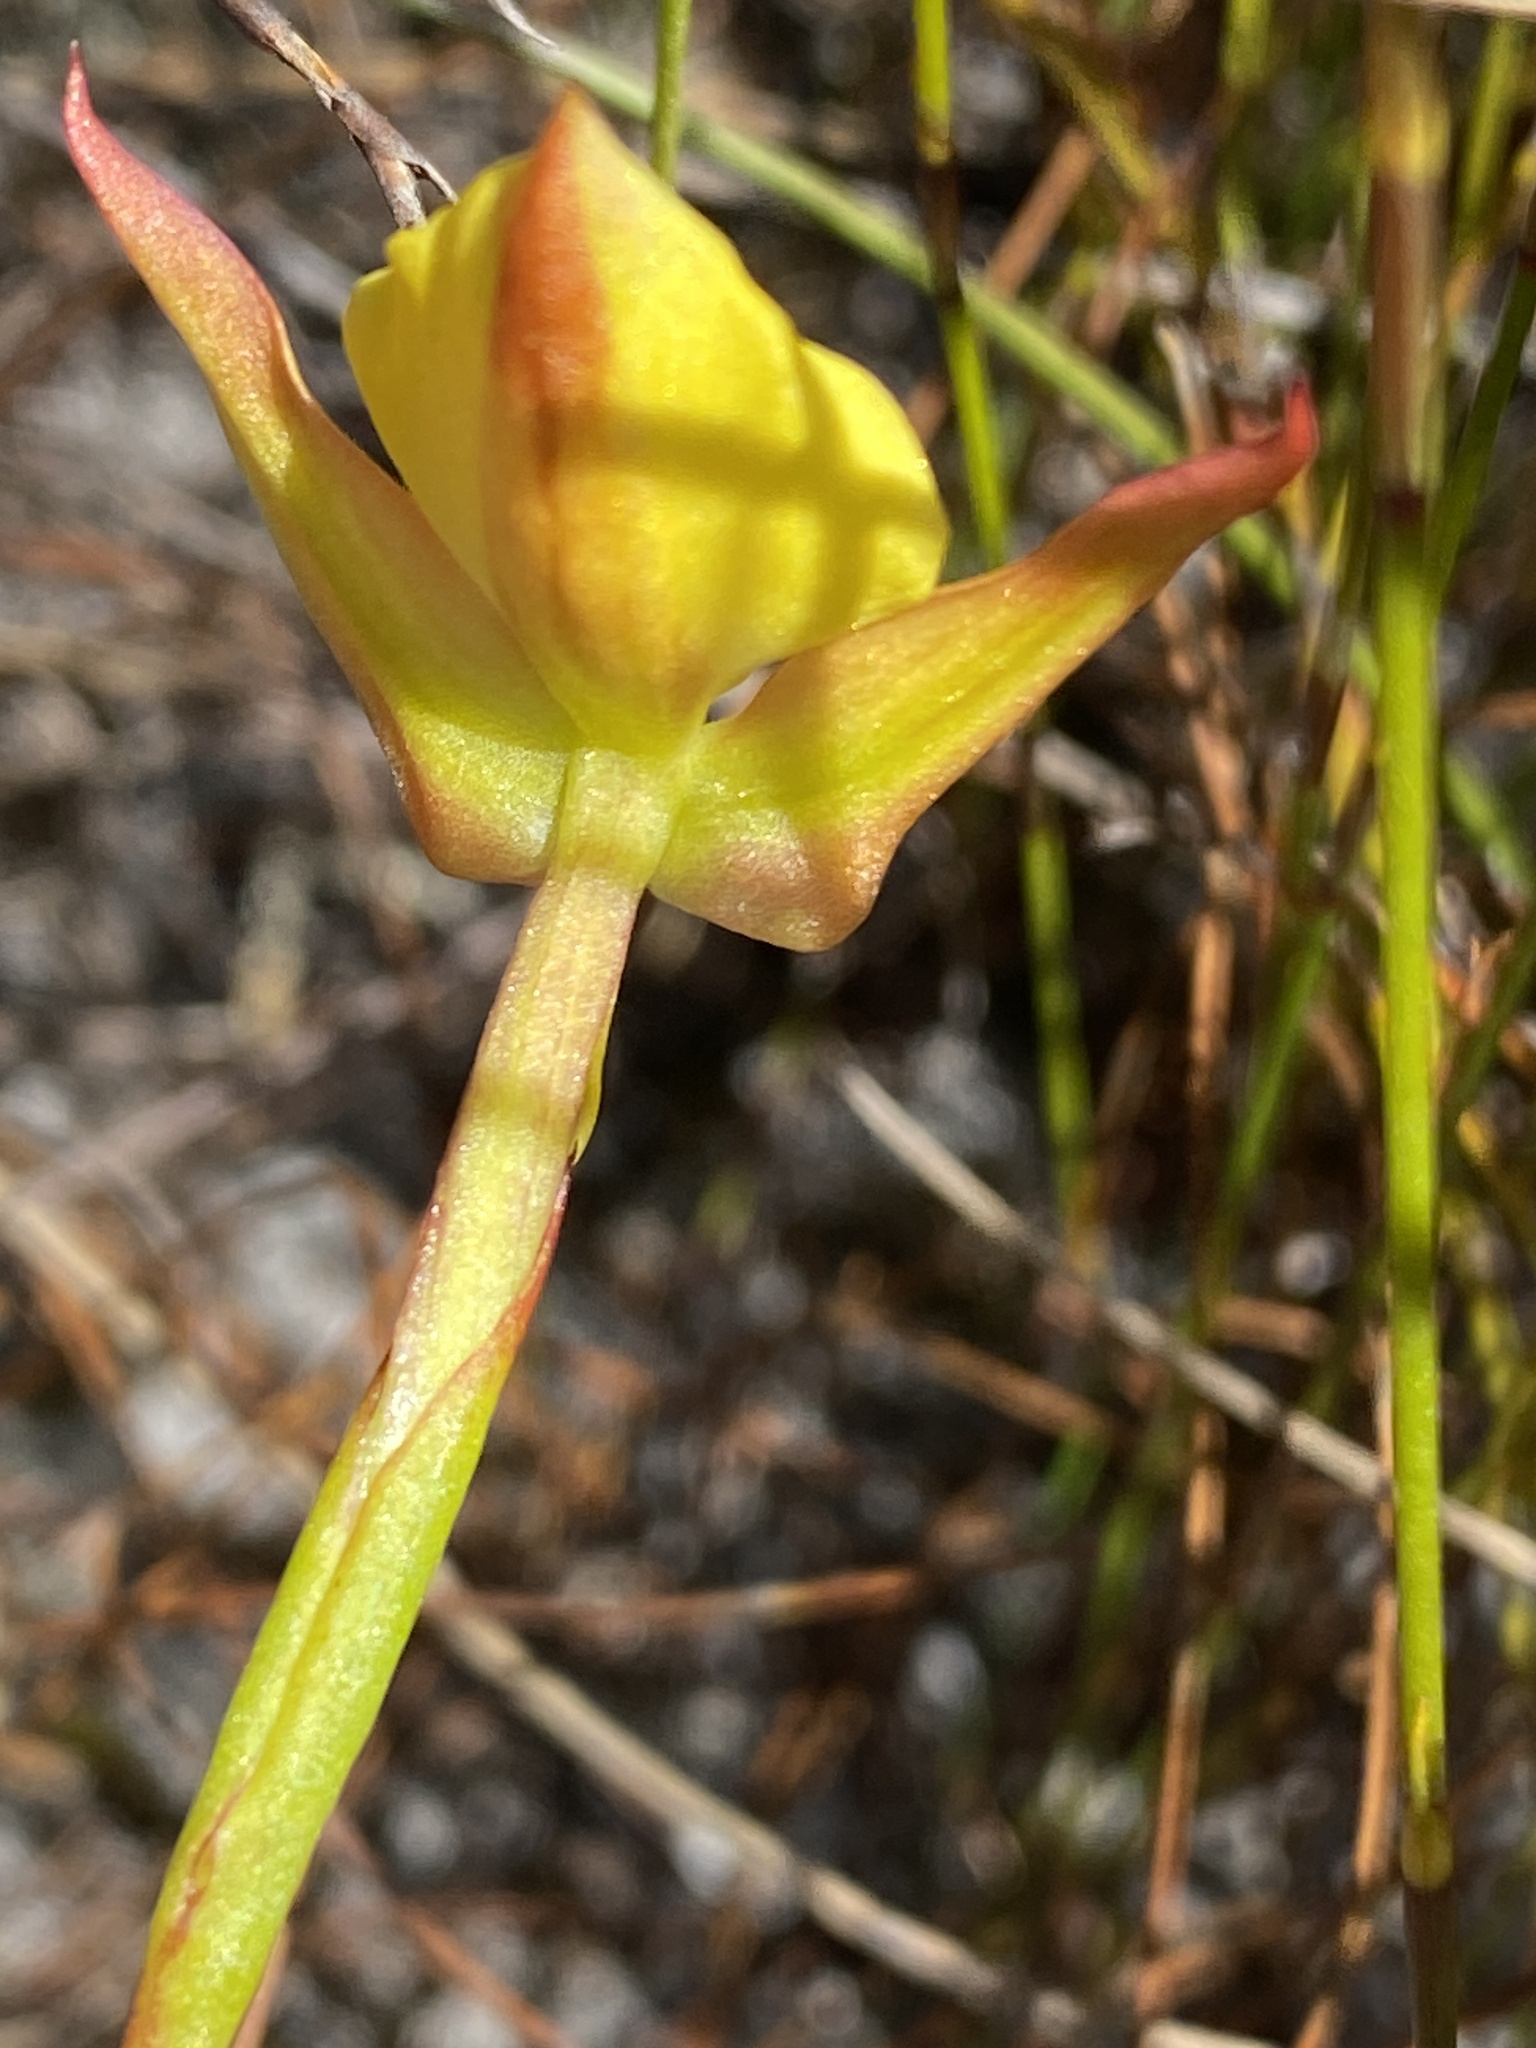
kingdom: Plantae
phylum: Tracheophyta
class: Liliopsida
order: Asparagales
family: Orchidaceae
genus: Disa
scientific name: Disa tenuifolia
